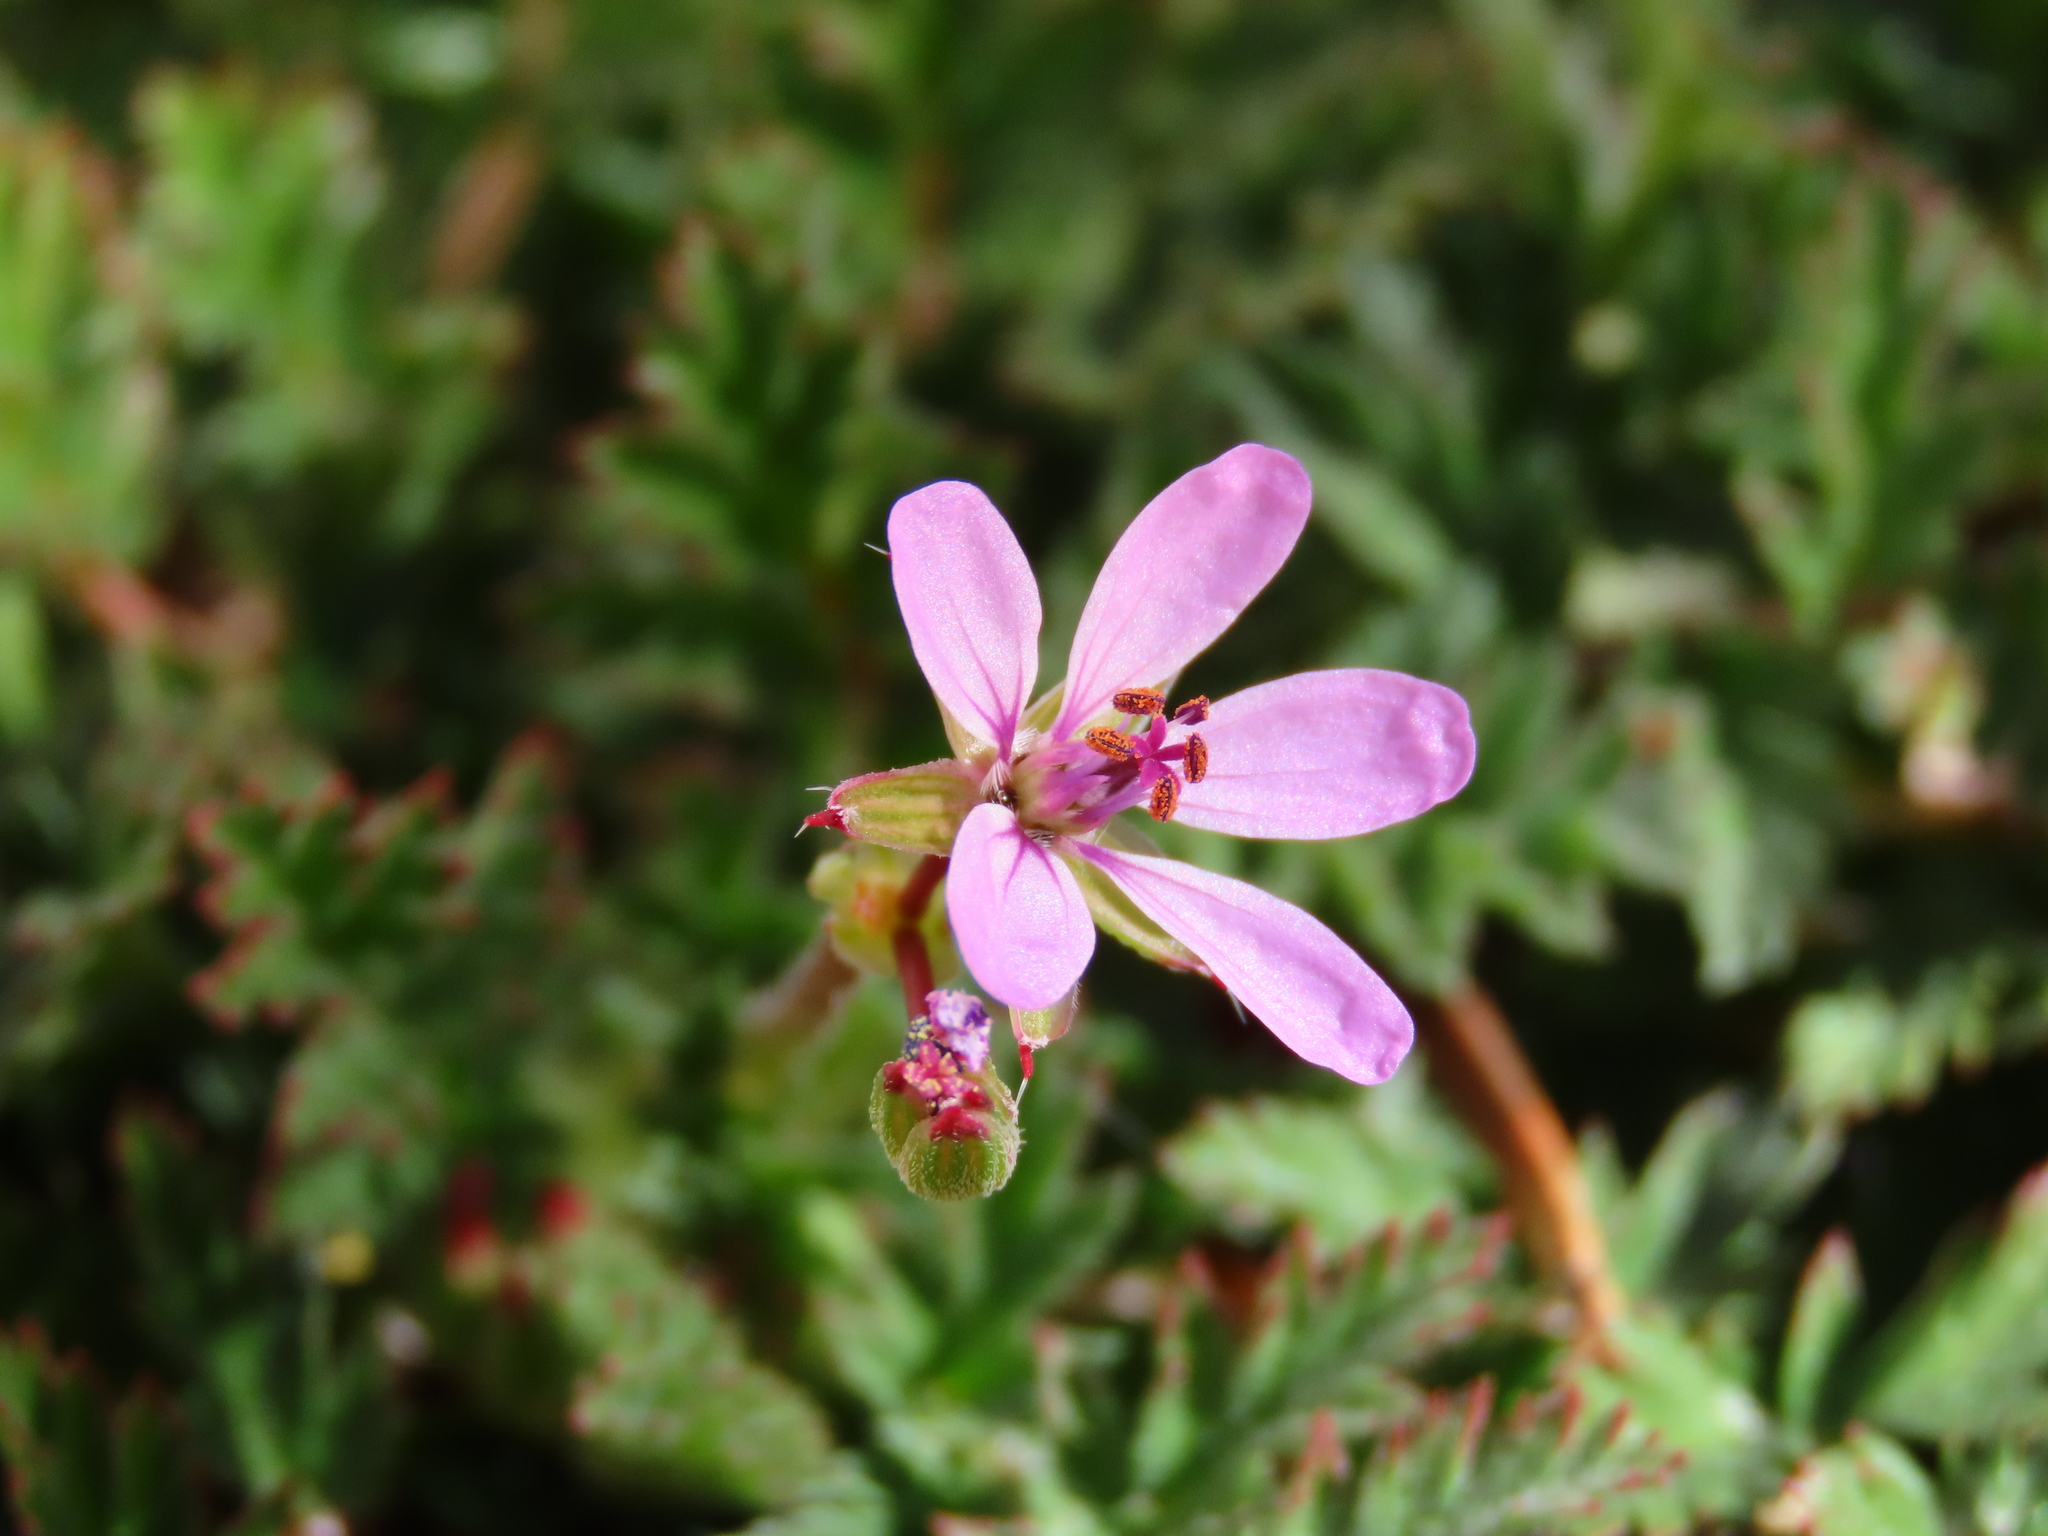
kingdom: Plantae
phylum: Tracheophyta
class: Magnoliopsida
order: Geraniales
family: Geraniaceae
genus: Erodium
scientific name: Erodium cicutarium
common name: Common stork's-bill
